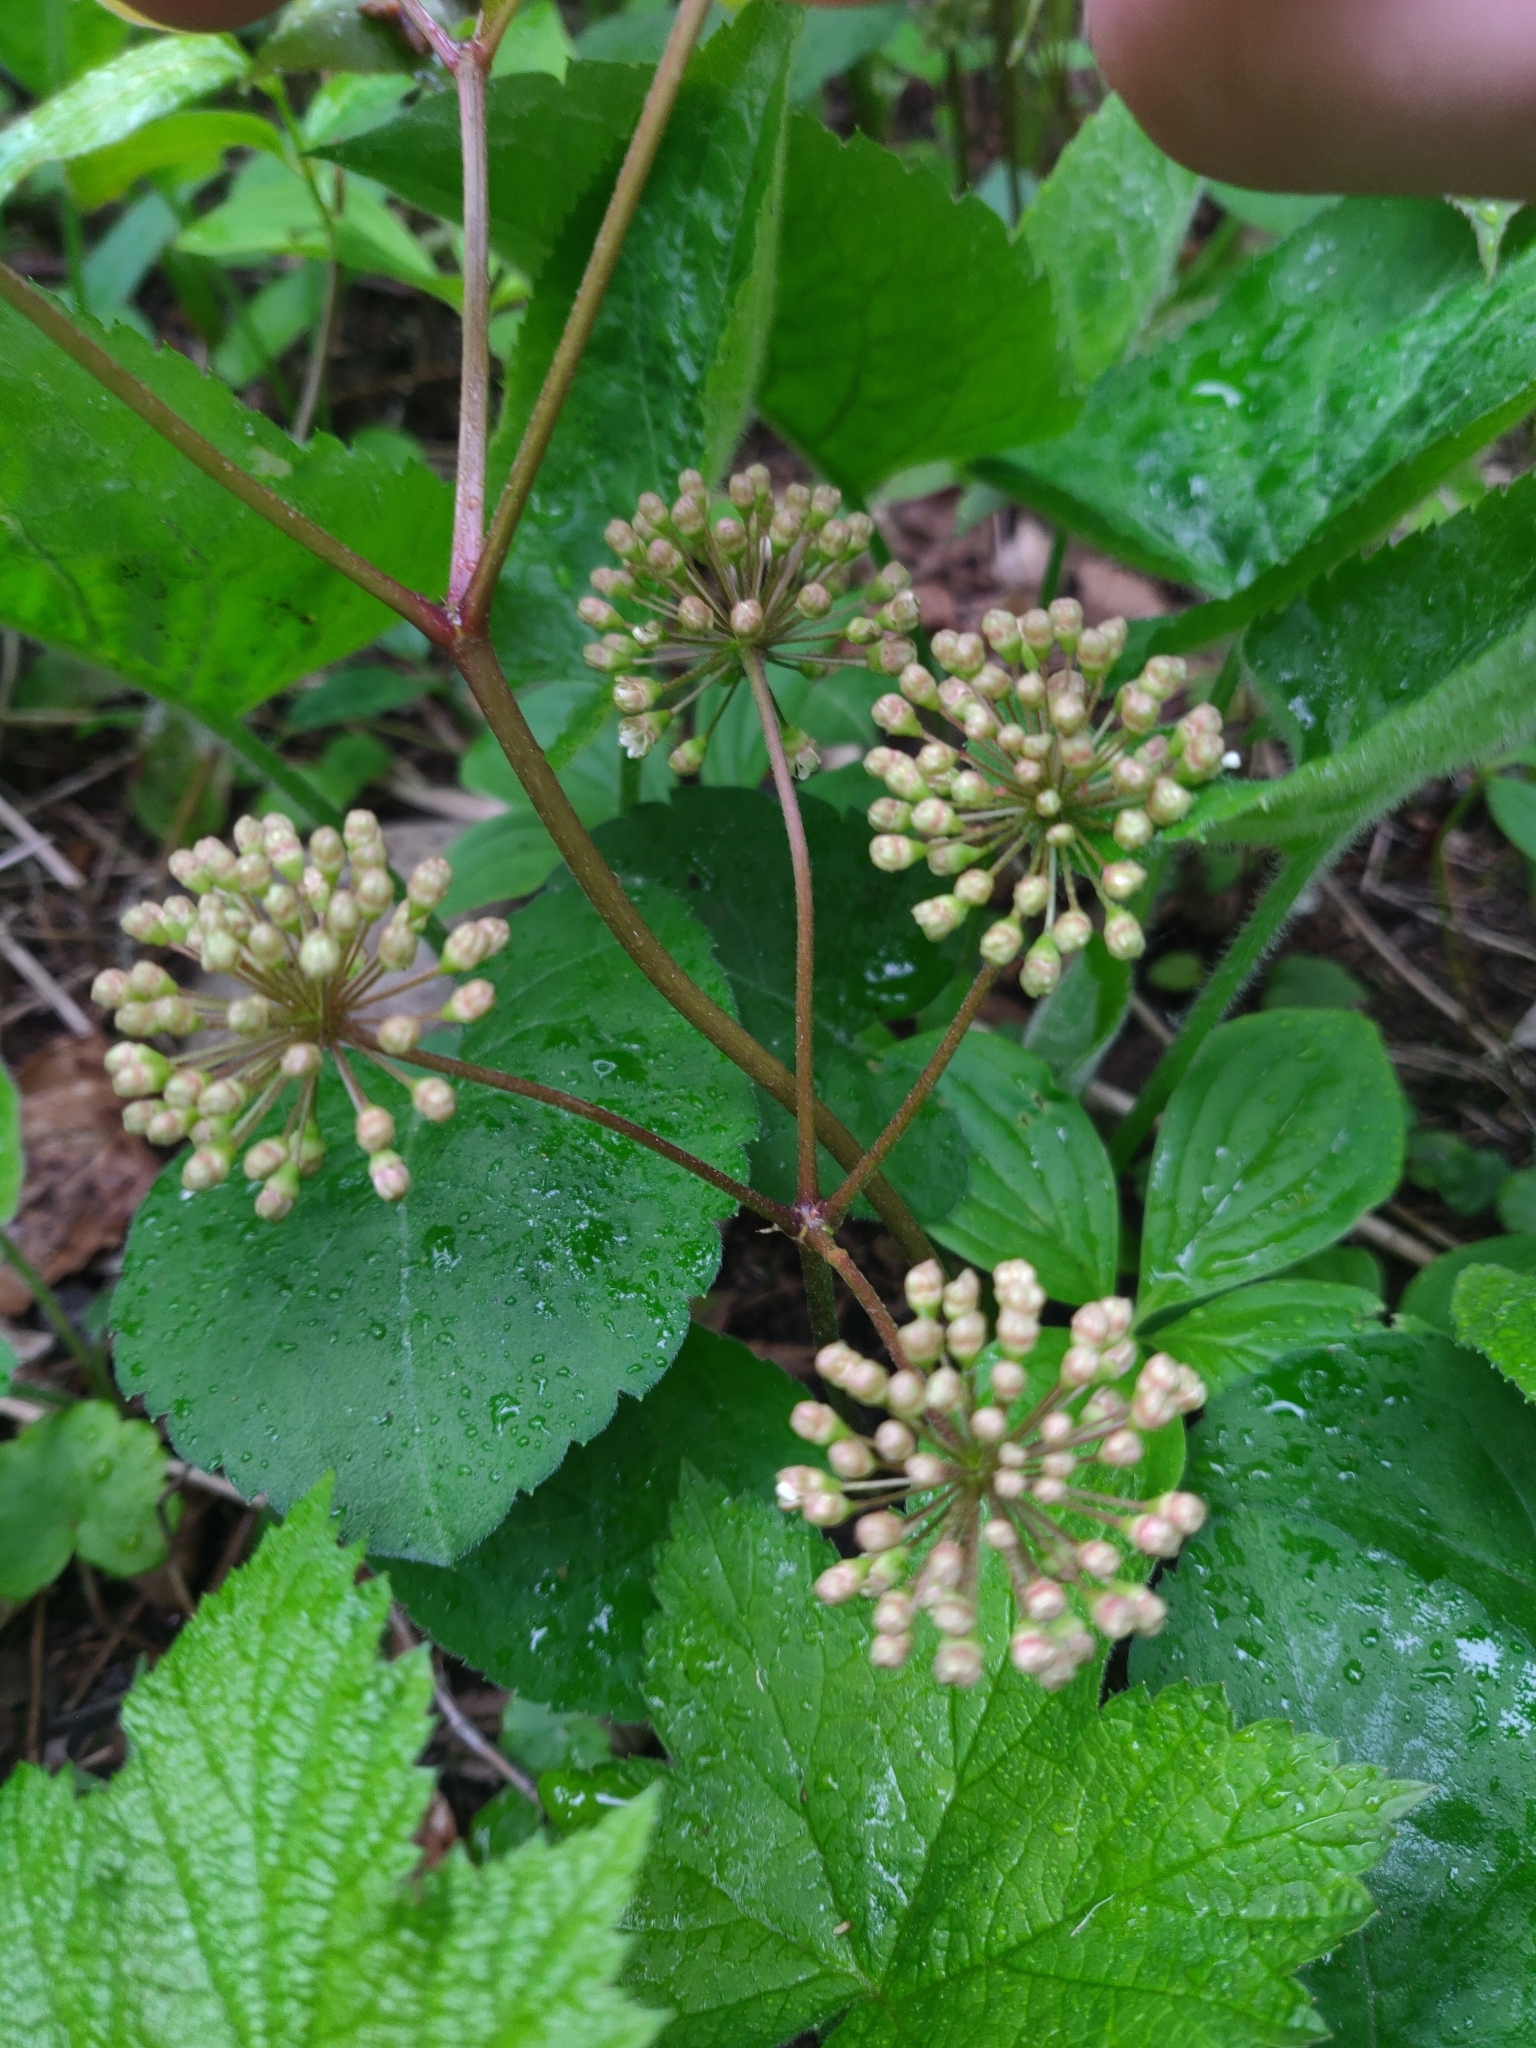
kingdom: Plantae
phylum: Tracheophyta
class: Magnoliopsida
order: Apiales
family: Araliaceae
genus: Aralia
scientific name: Aralia nudicaulis
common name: Wild sarsaparilla
